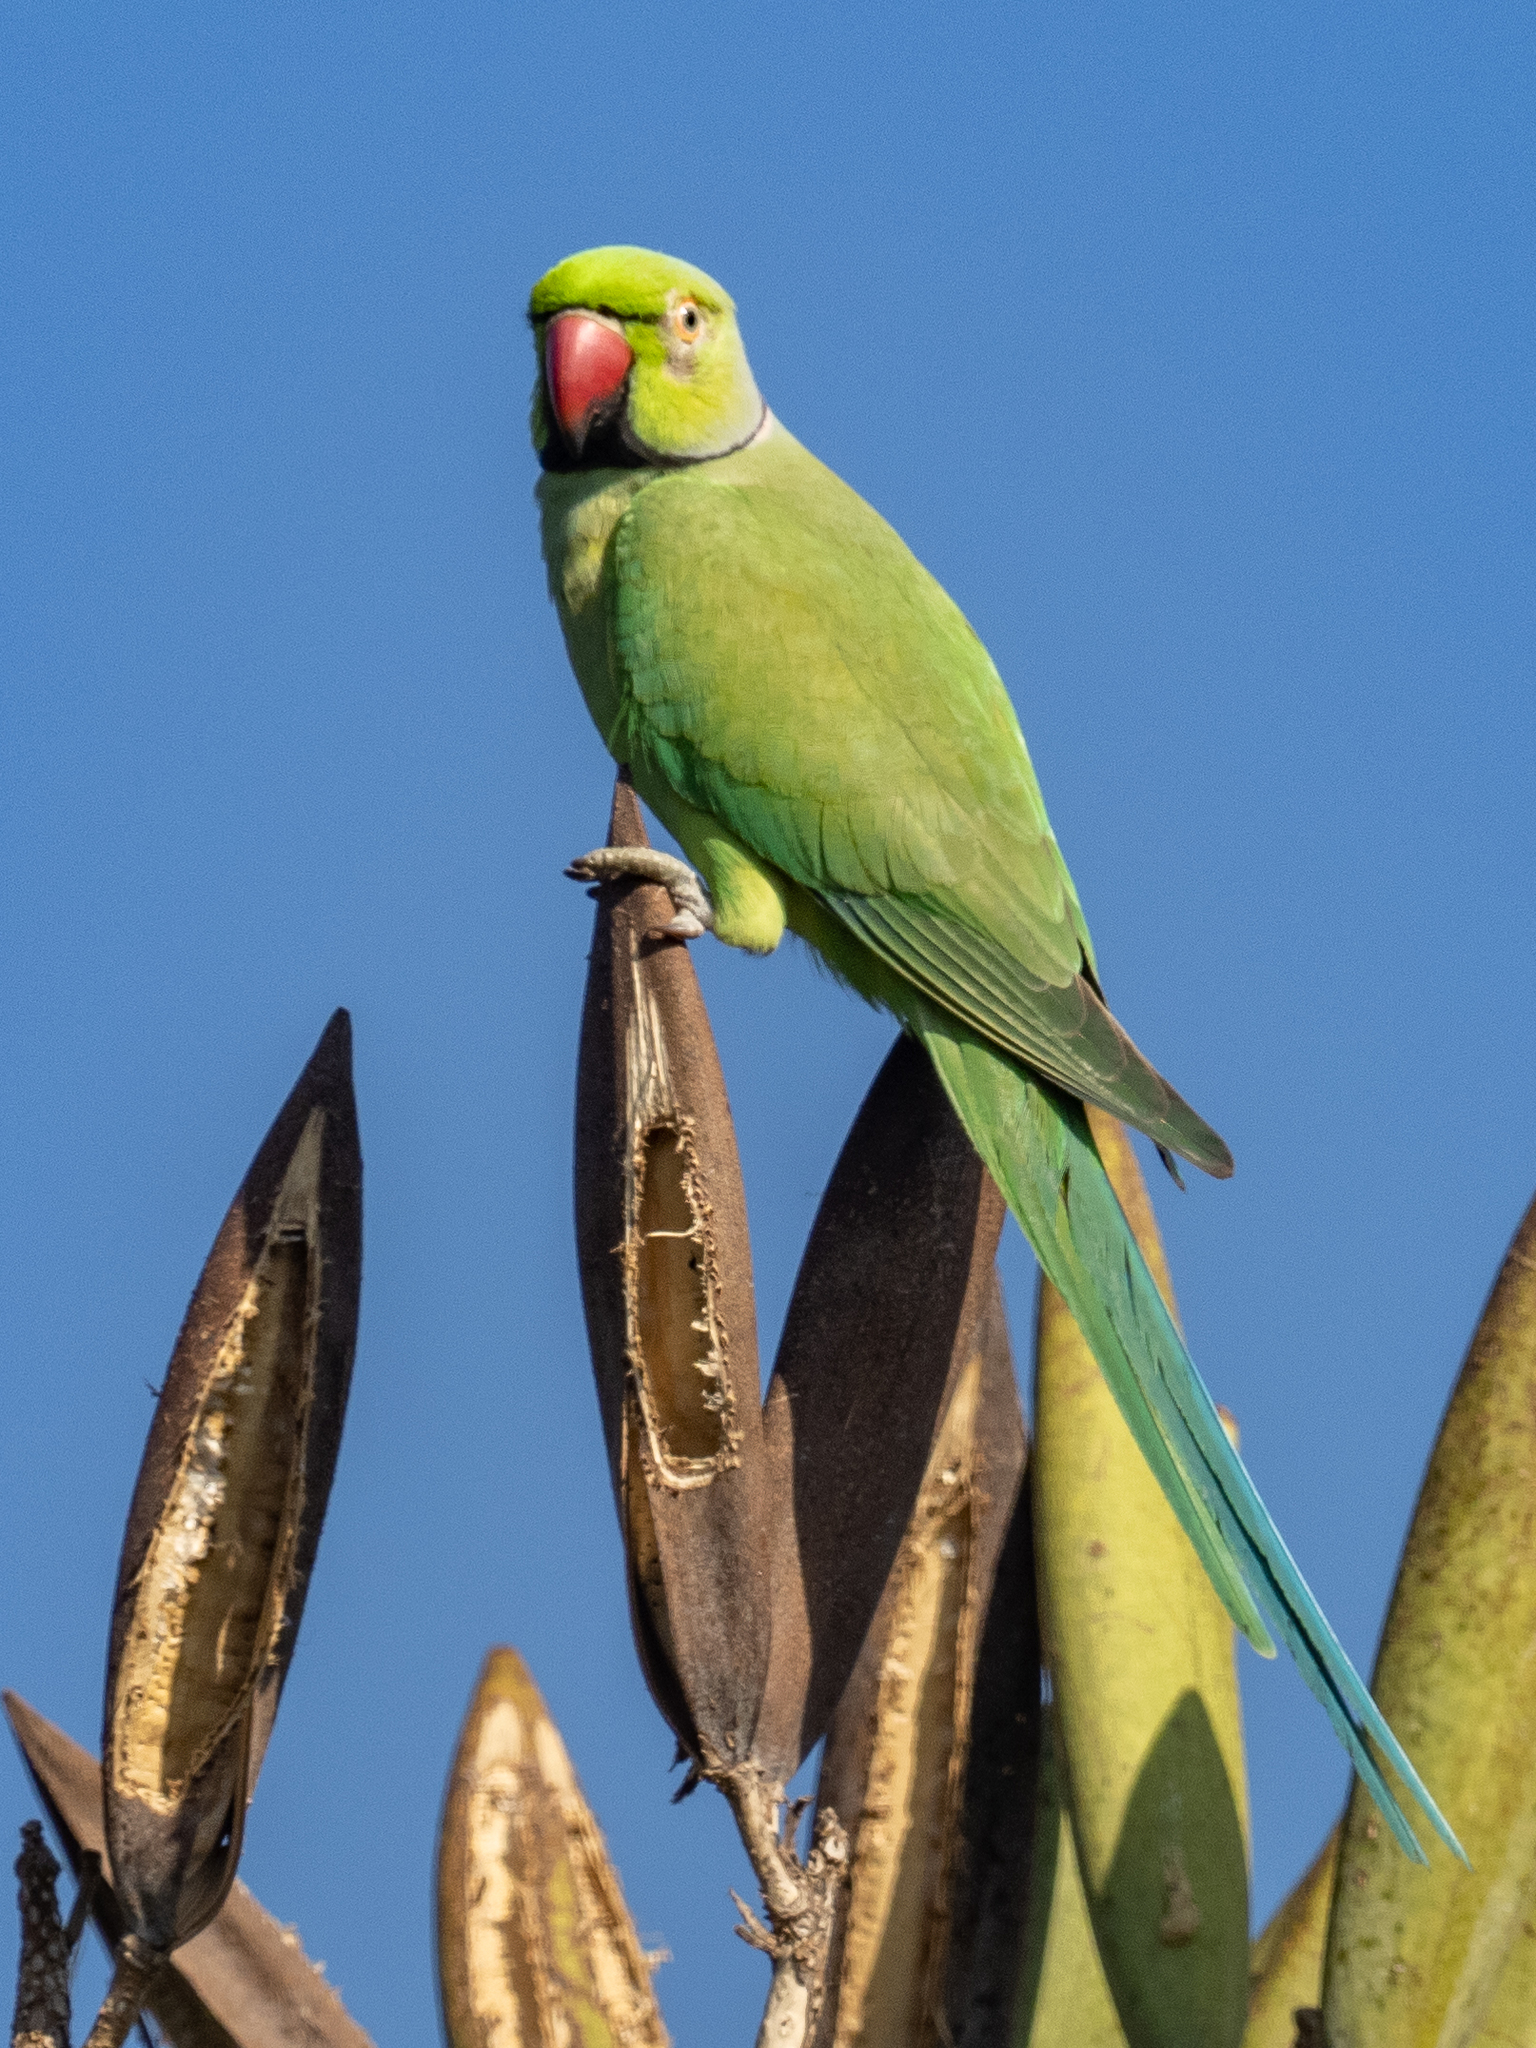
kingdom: Animalia
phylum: Chordata
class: Aves
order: Psittaciformes
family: Psittacidae
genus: Psittacula
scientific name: Psittacula krameri
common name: Rose-ringed parakeet
